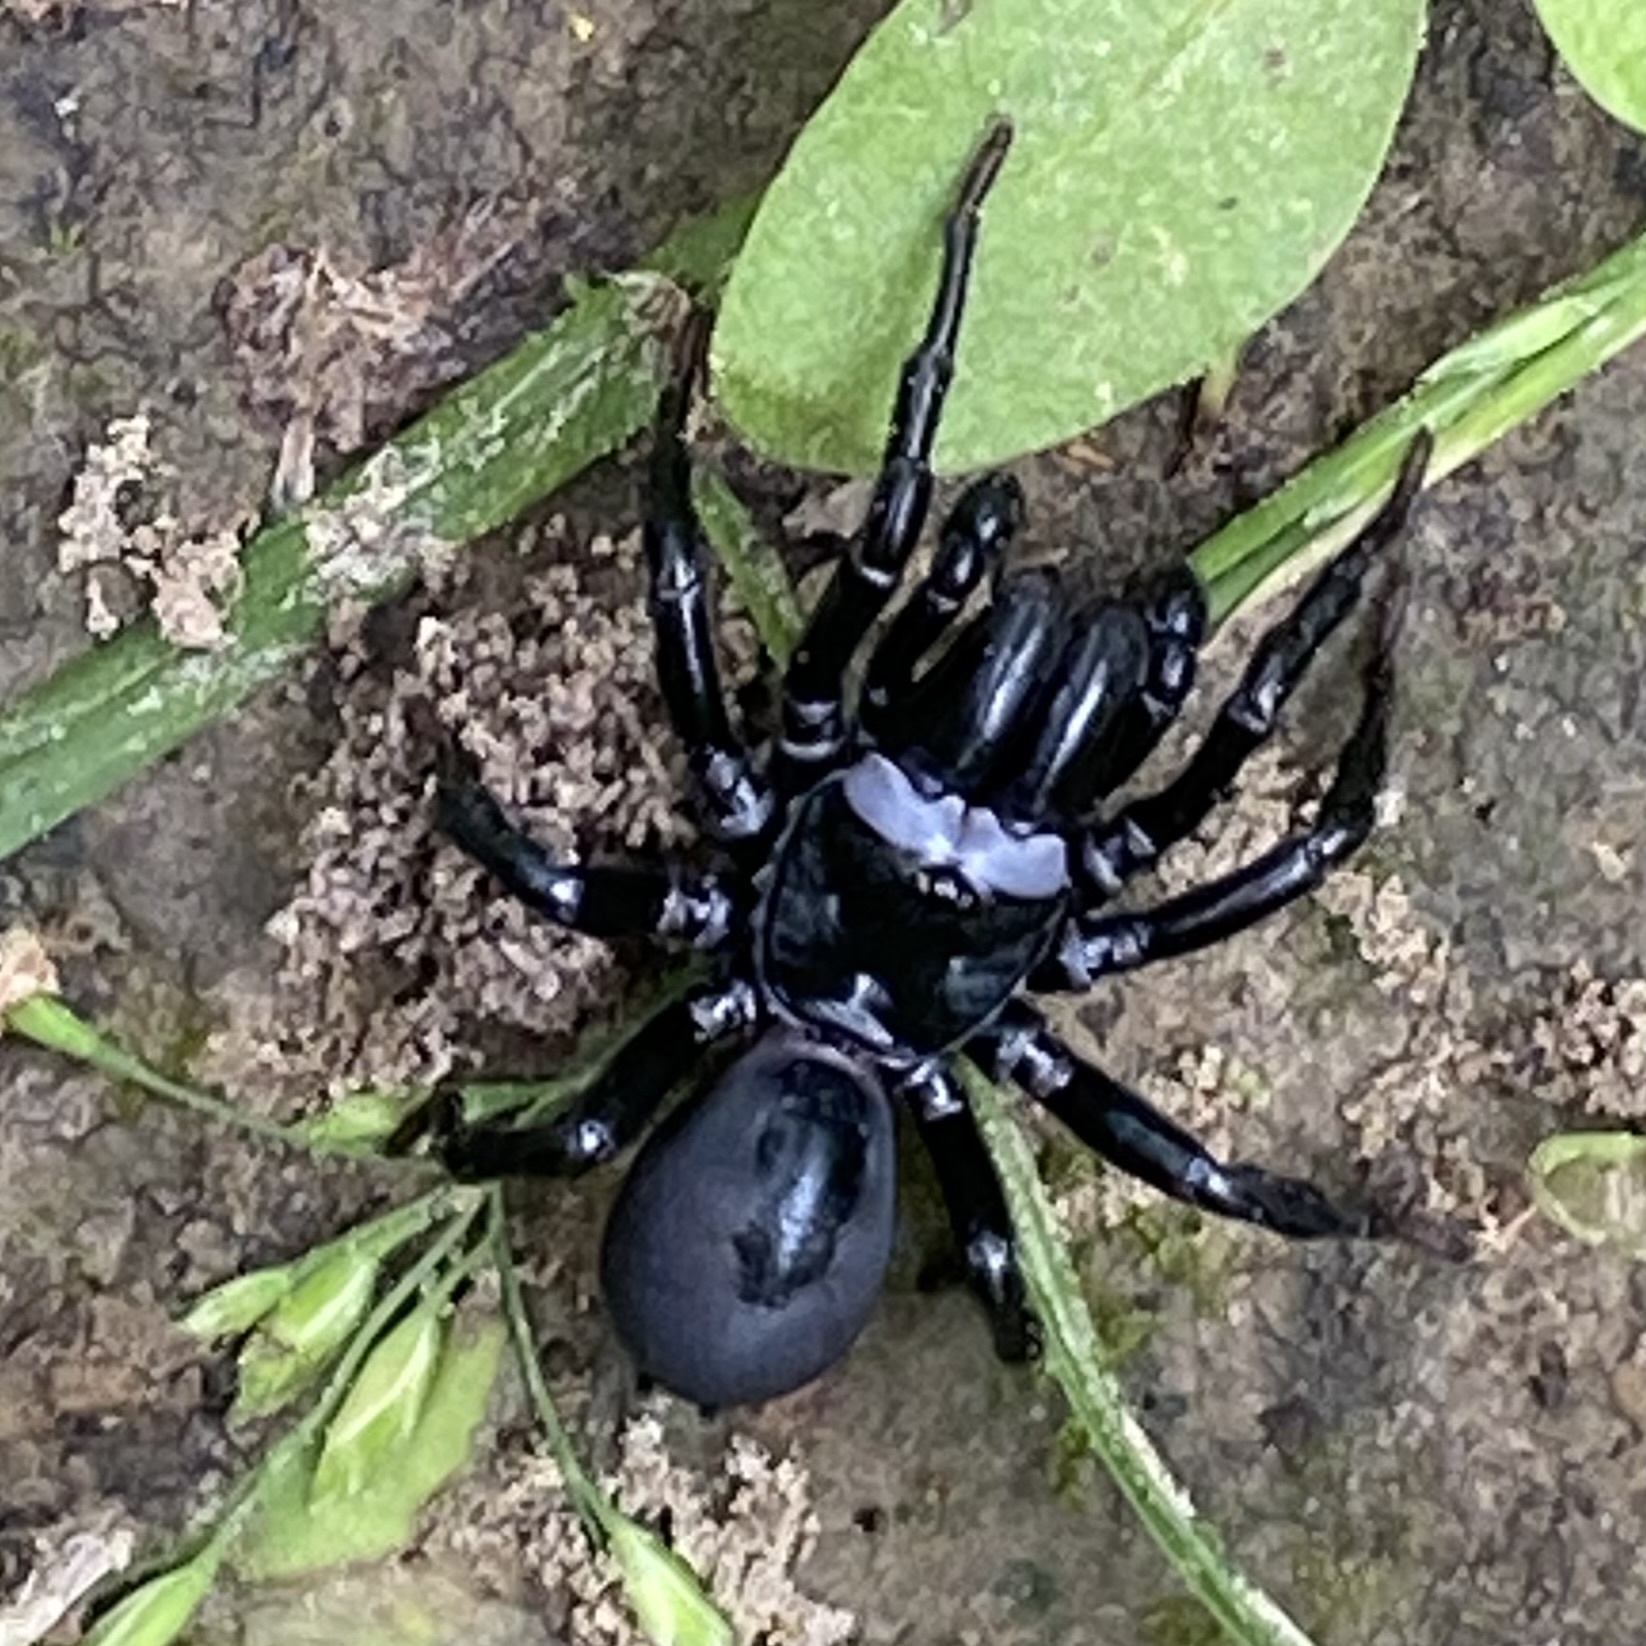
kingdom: Animalia
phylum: Arthropoda
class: Arachnida
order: Araneae
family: Atypidae
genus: Sphodros
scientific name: Sphodros niger
